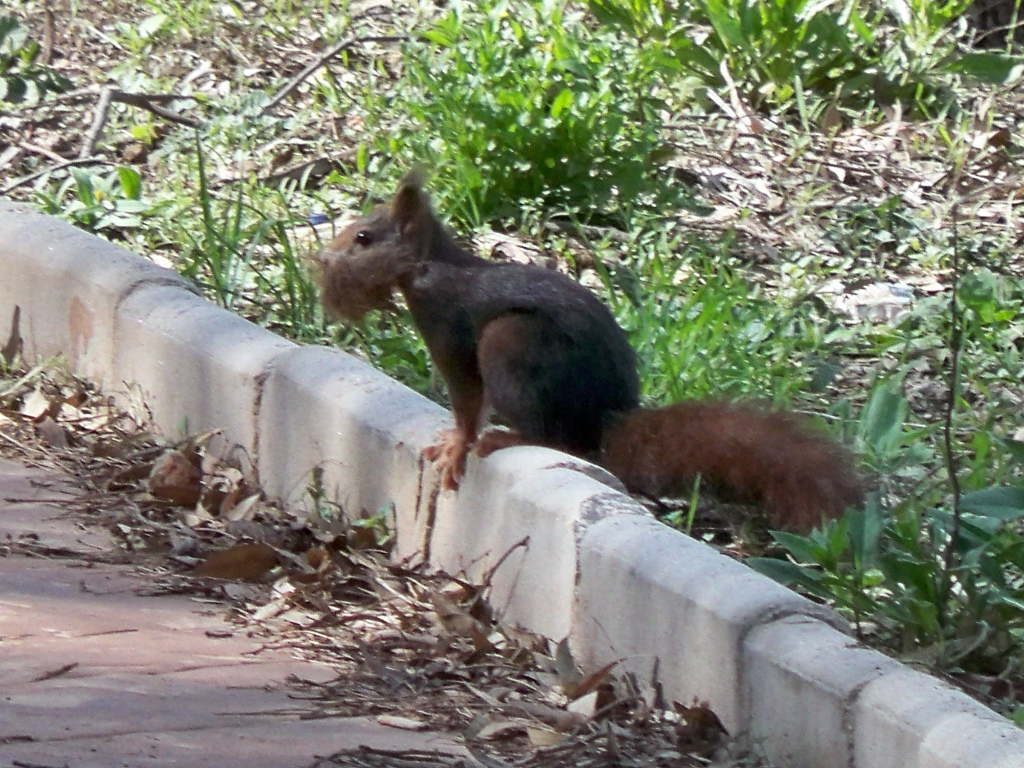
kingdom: Animalia
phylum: Chordata
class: Mammalia
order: Rodentia
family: Sciuridae
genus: Sciurus
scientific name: Sciurus vulgaris
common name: Eurasian red squirrel
